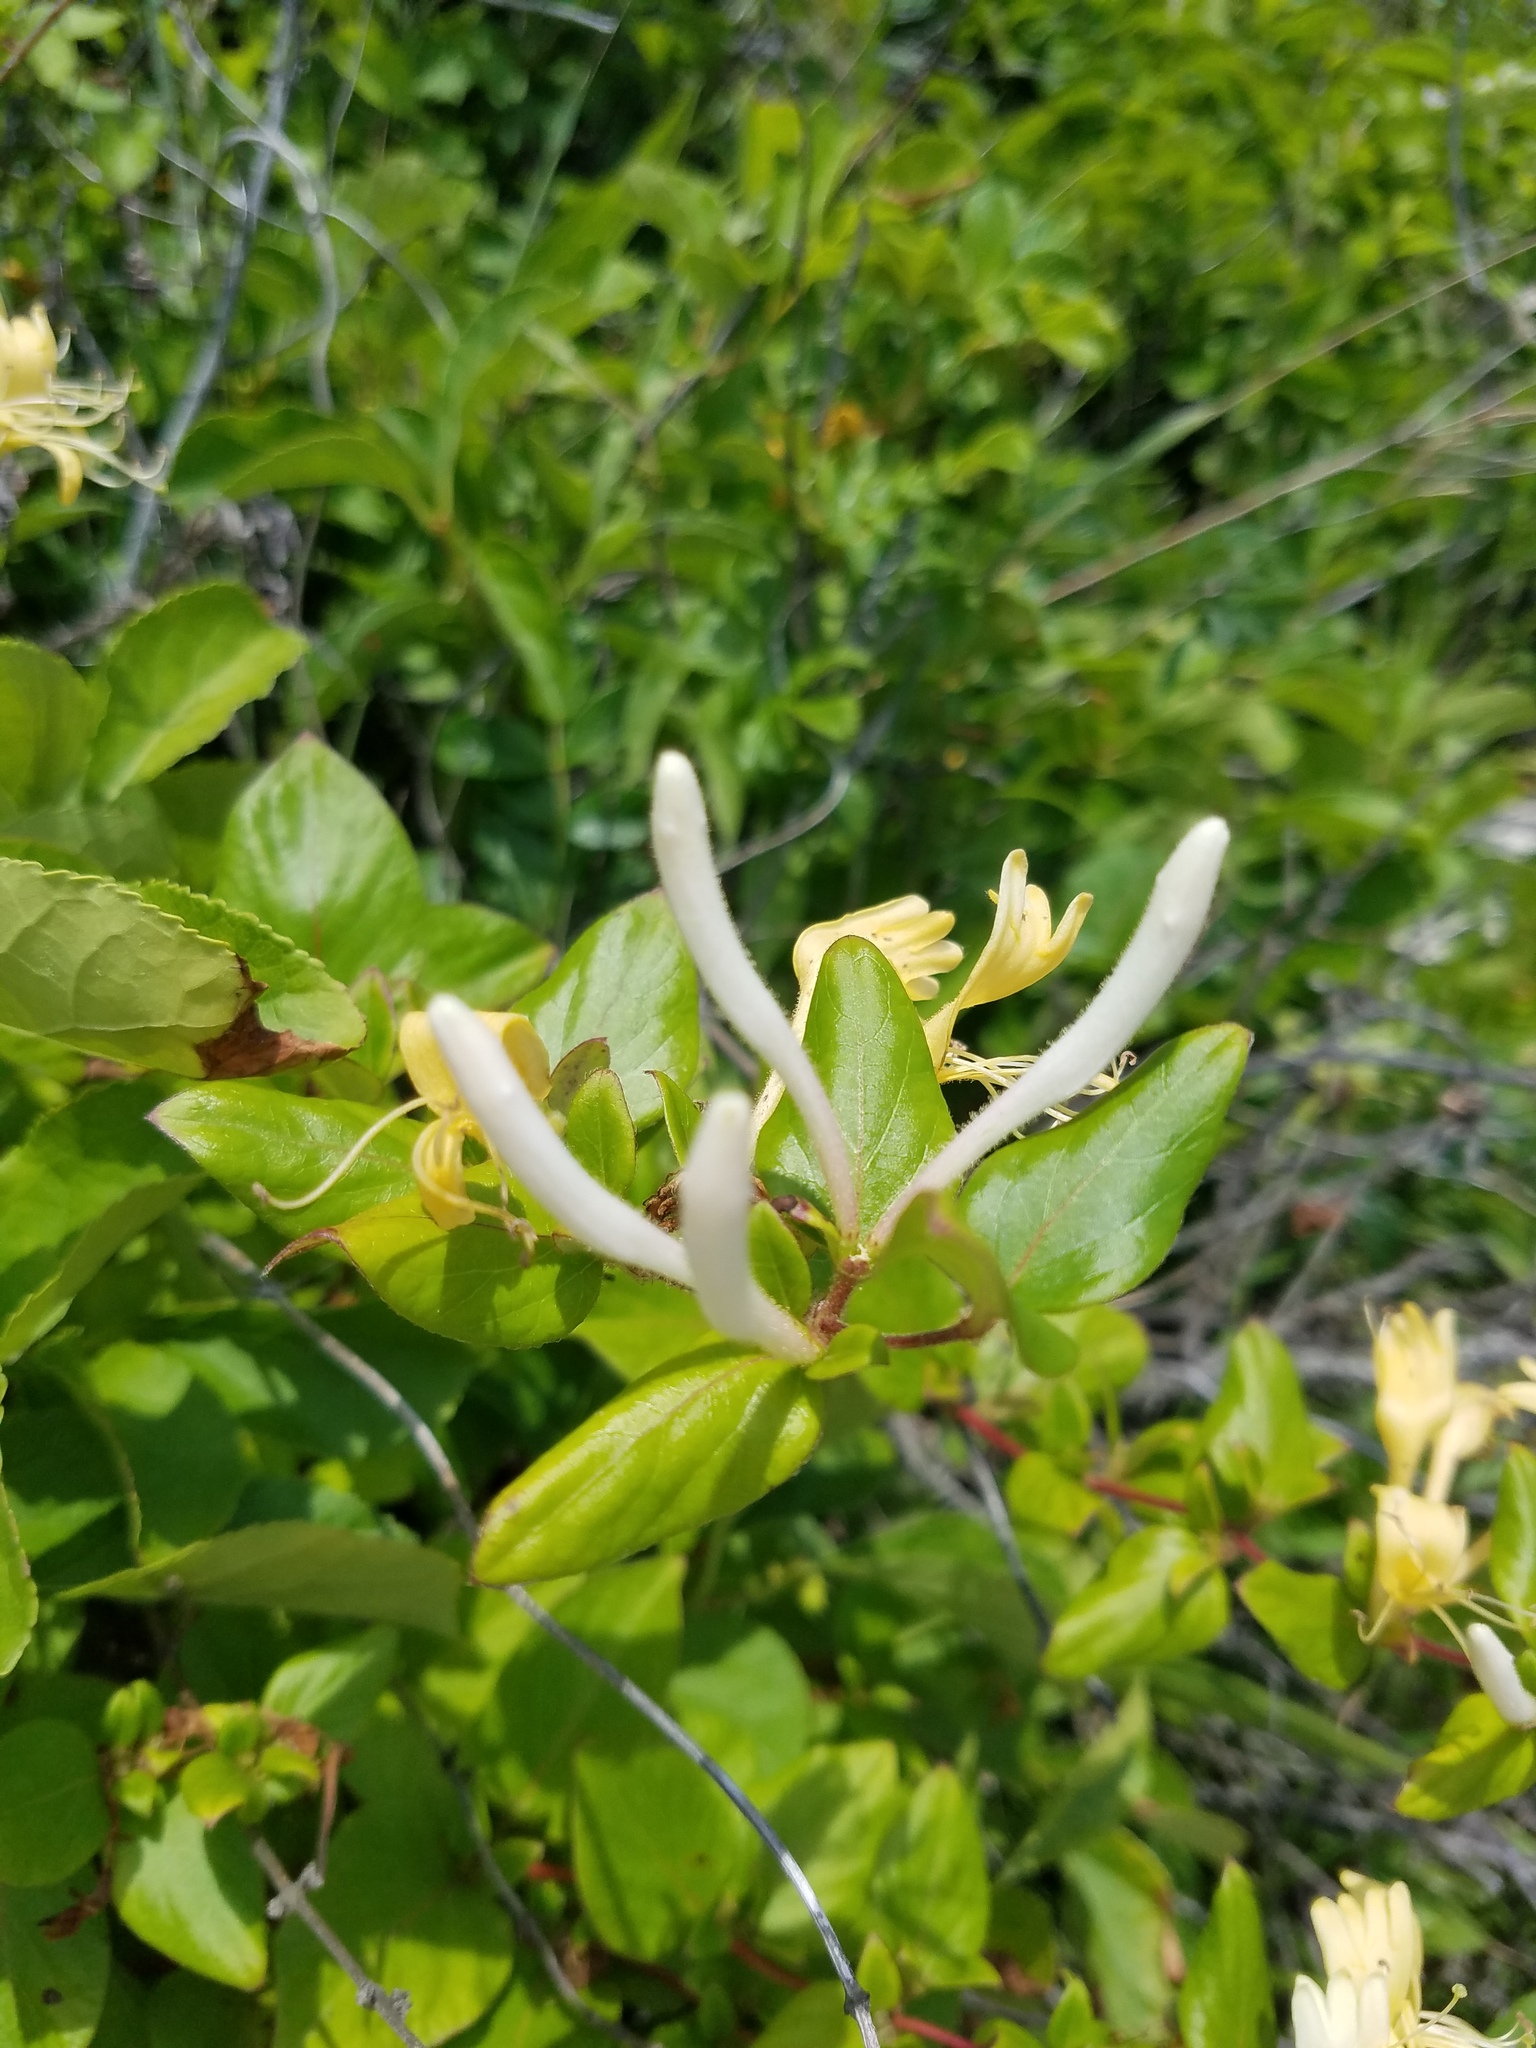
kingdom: Plantae
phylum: Tracheophyta
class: Magnoliopsida
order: Dipsacales
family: Caprifoliaceae
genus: Lonicera
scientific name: Lonicera japonica
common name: Japanese honeysuckle
